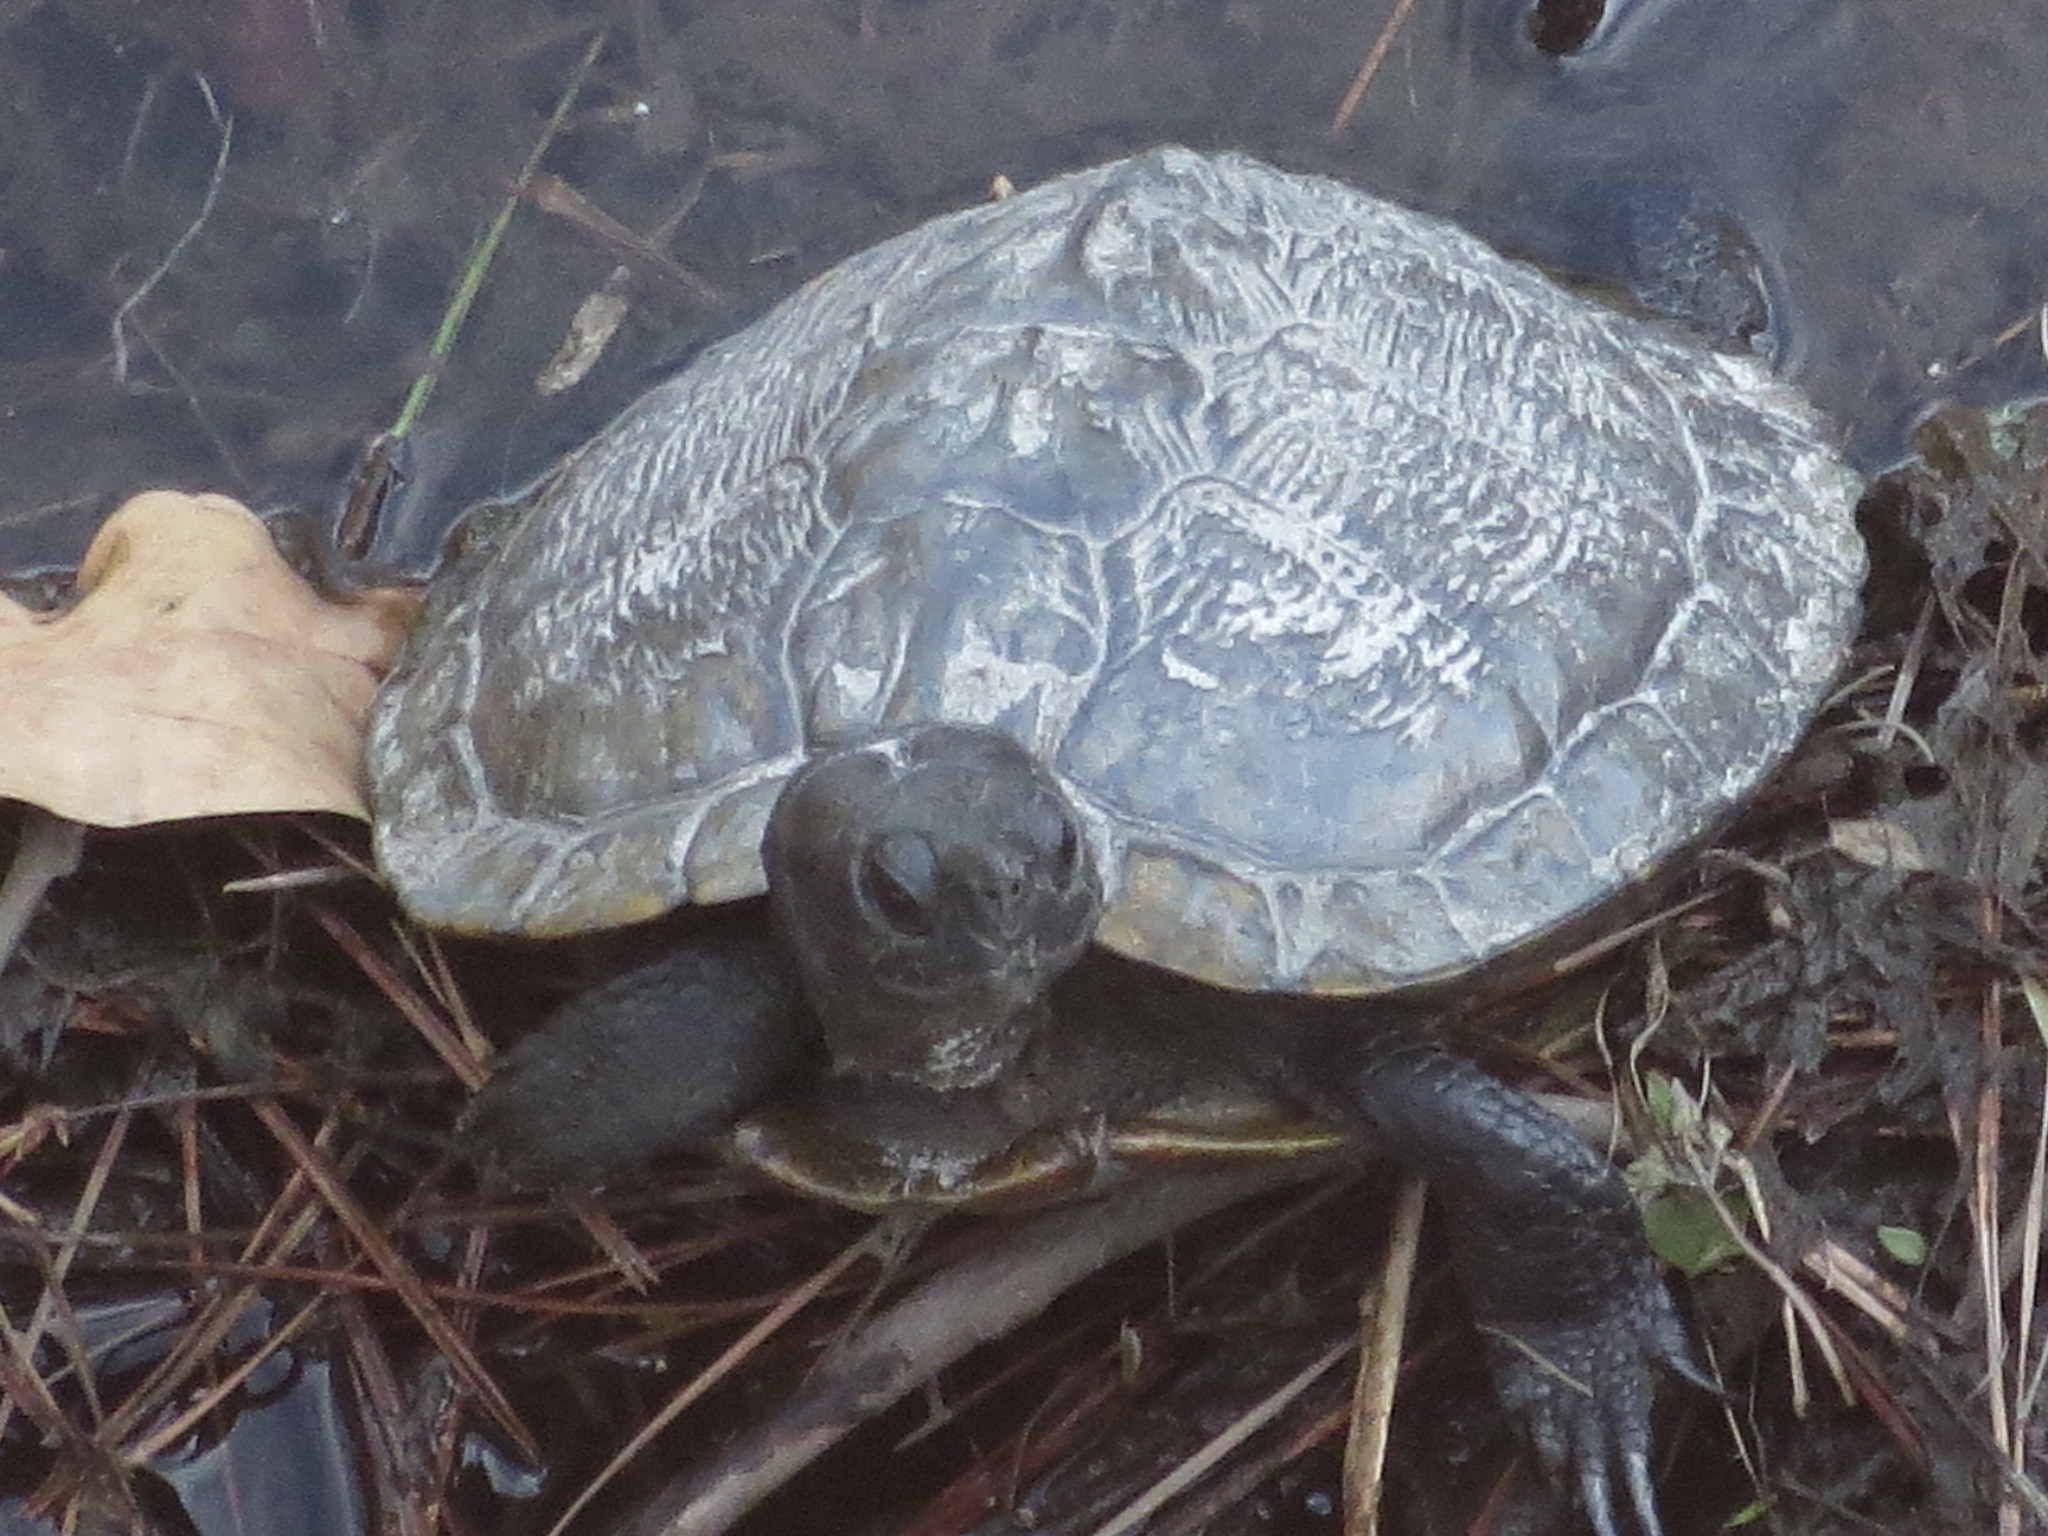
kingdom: Animalia
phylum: Chordata
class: Testudines
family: Emydidae
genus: Trachemys
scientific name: Trachemys scripta
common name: Slider
